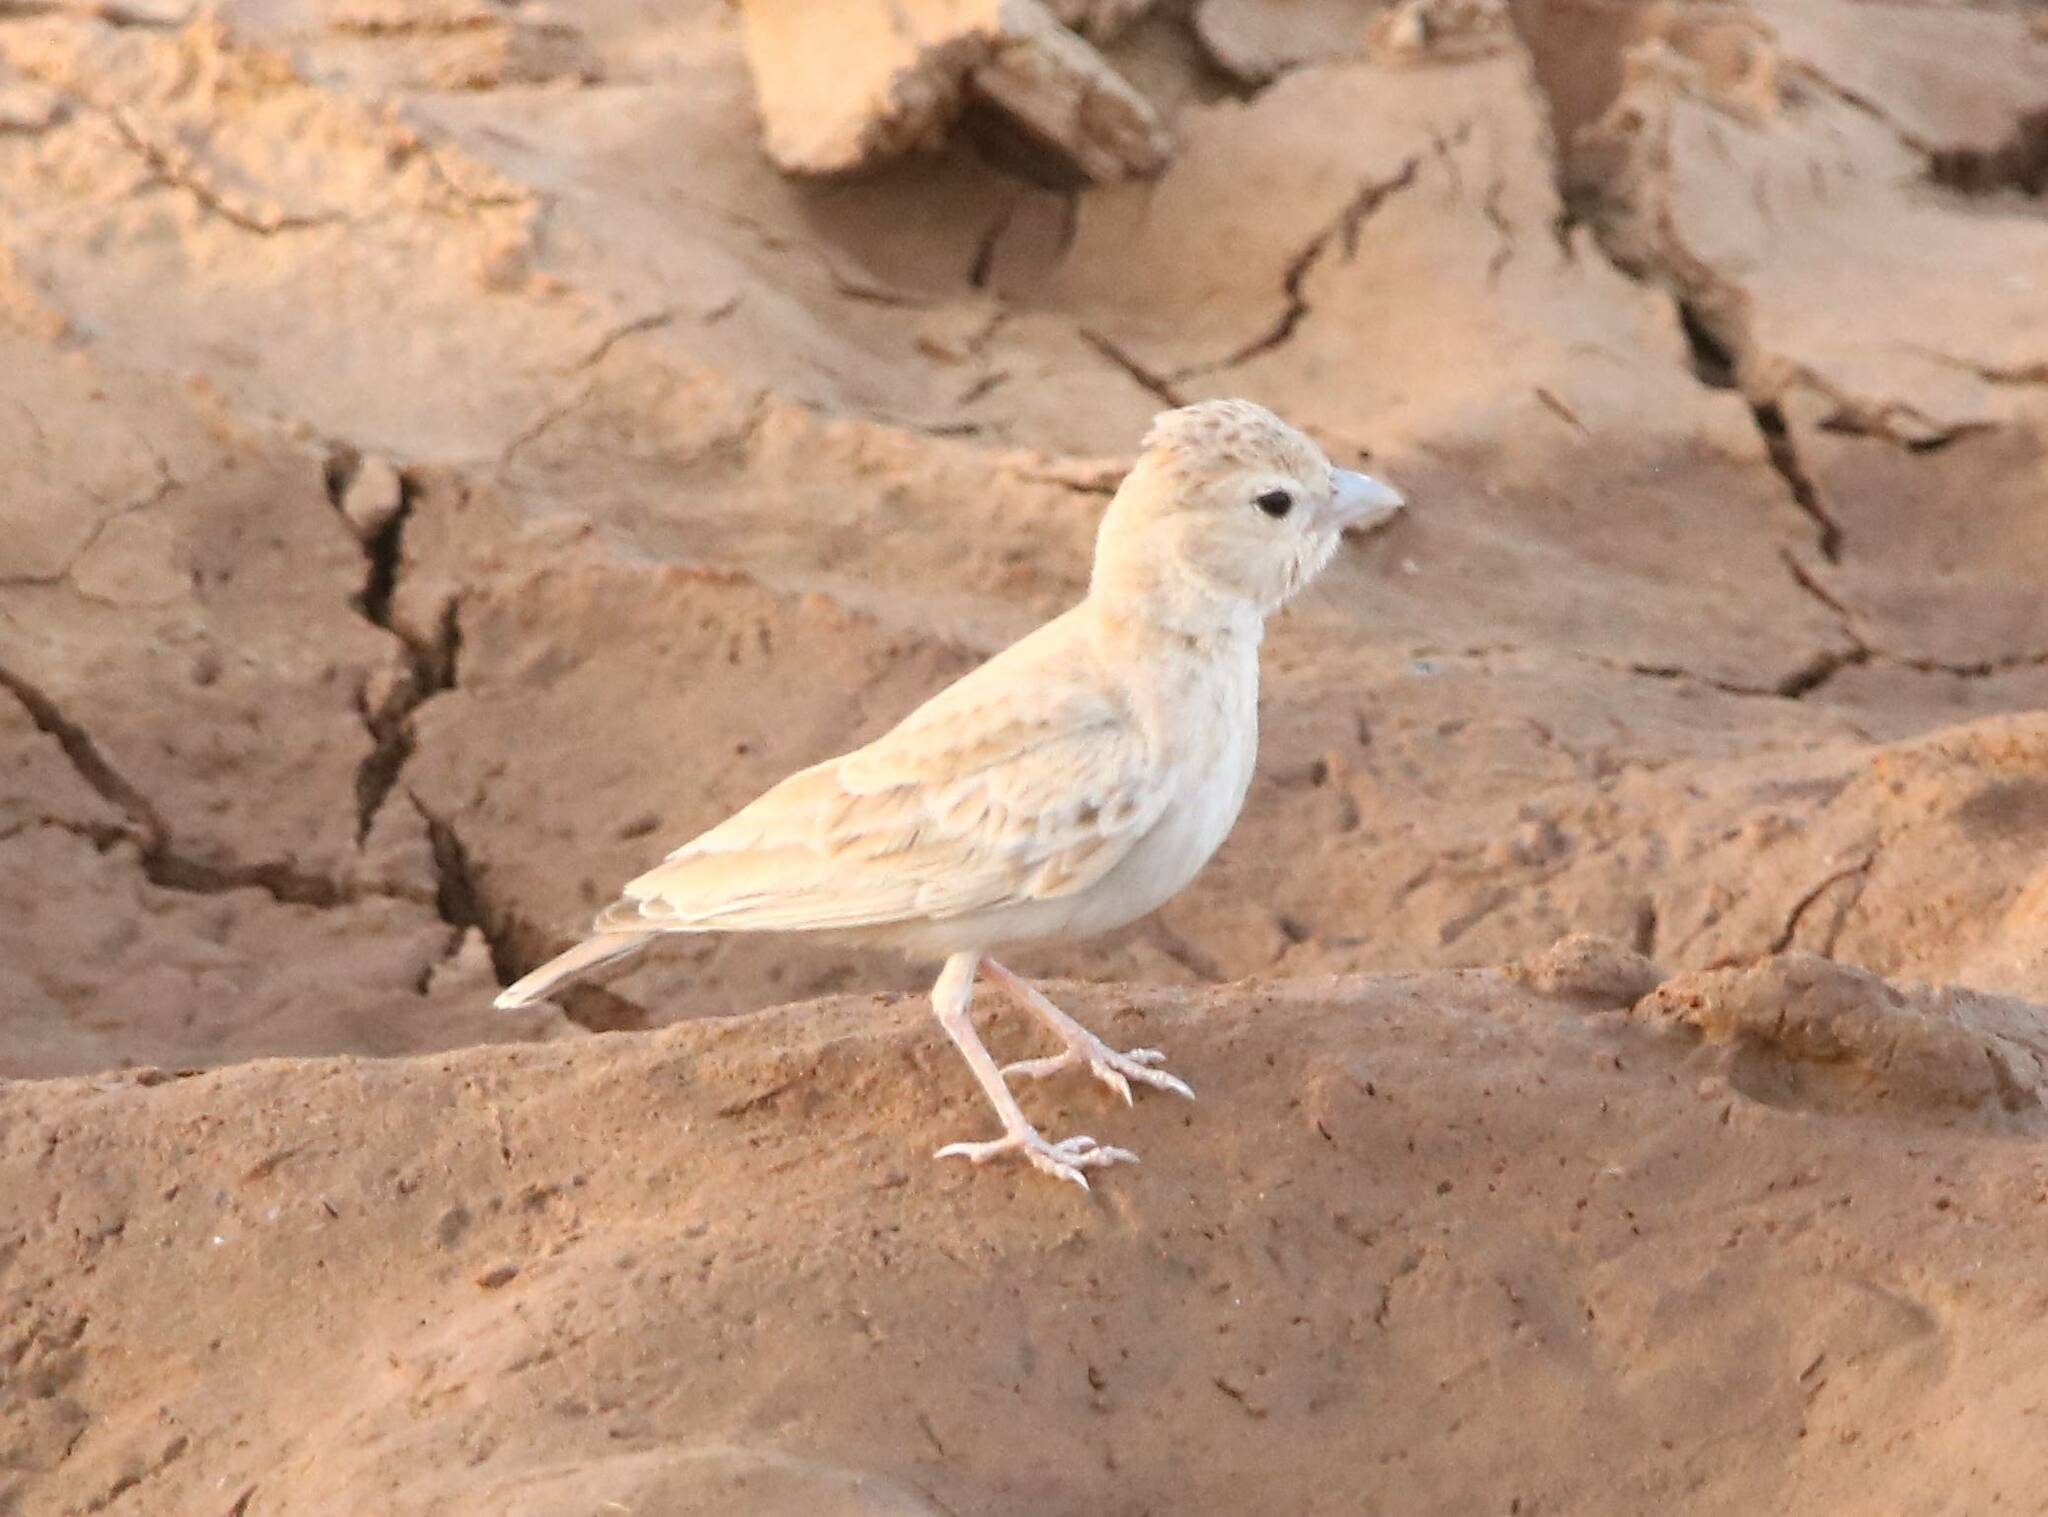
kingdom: Animalia
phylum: Chordata
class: Aves
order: Passeriformes
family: Alaudidae
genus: Eremopterix
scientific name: Eremopterix nigriceps
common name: Black-crowned sparrow-lark
